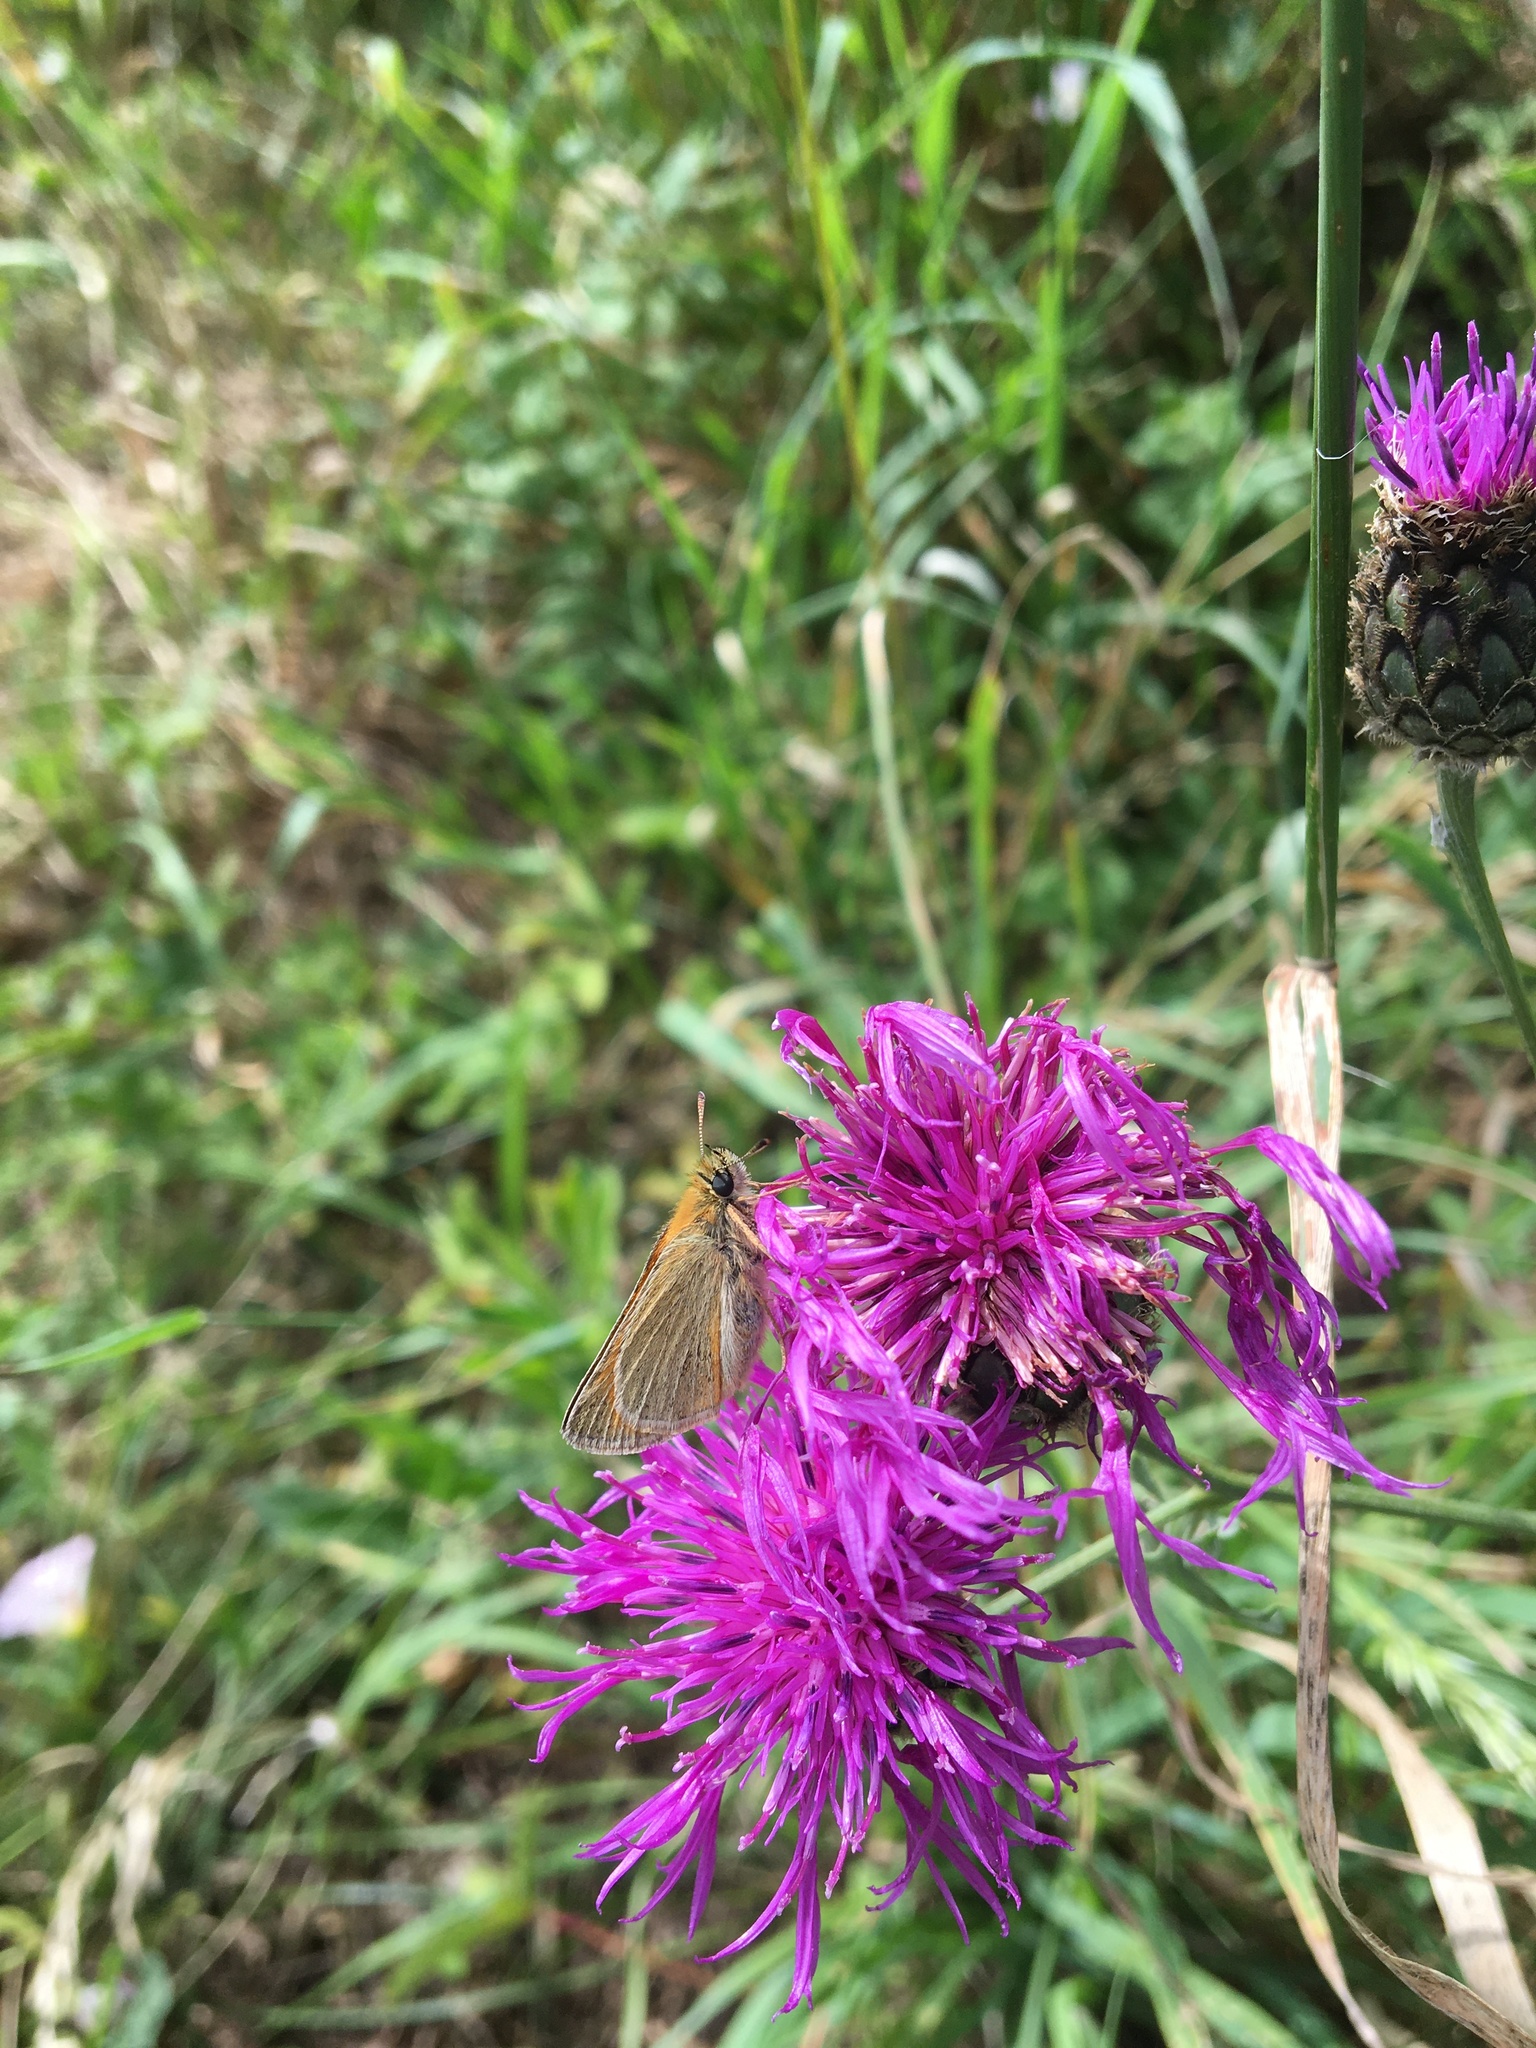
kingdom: Animalia
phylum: Arthropoda
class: Insecta
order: Lepidoptera
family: Hesperiidae
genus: Thymelicus
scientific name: Thymelicus sylvestris
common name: Small skipper
